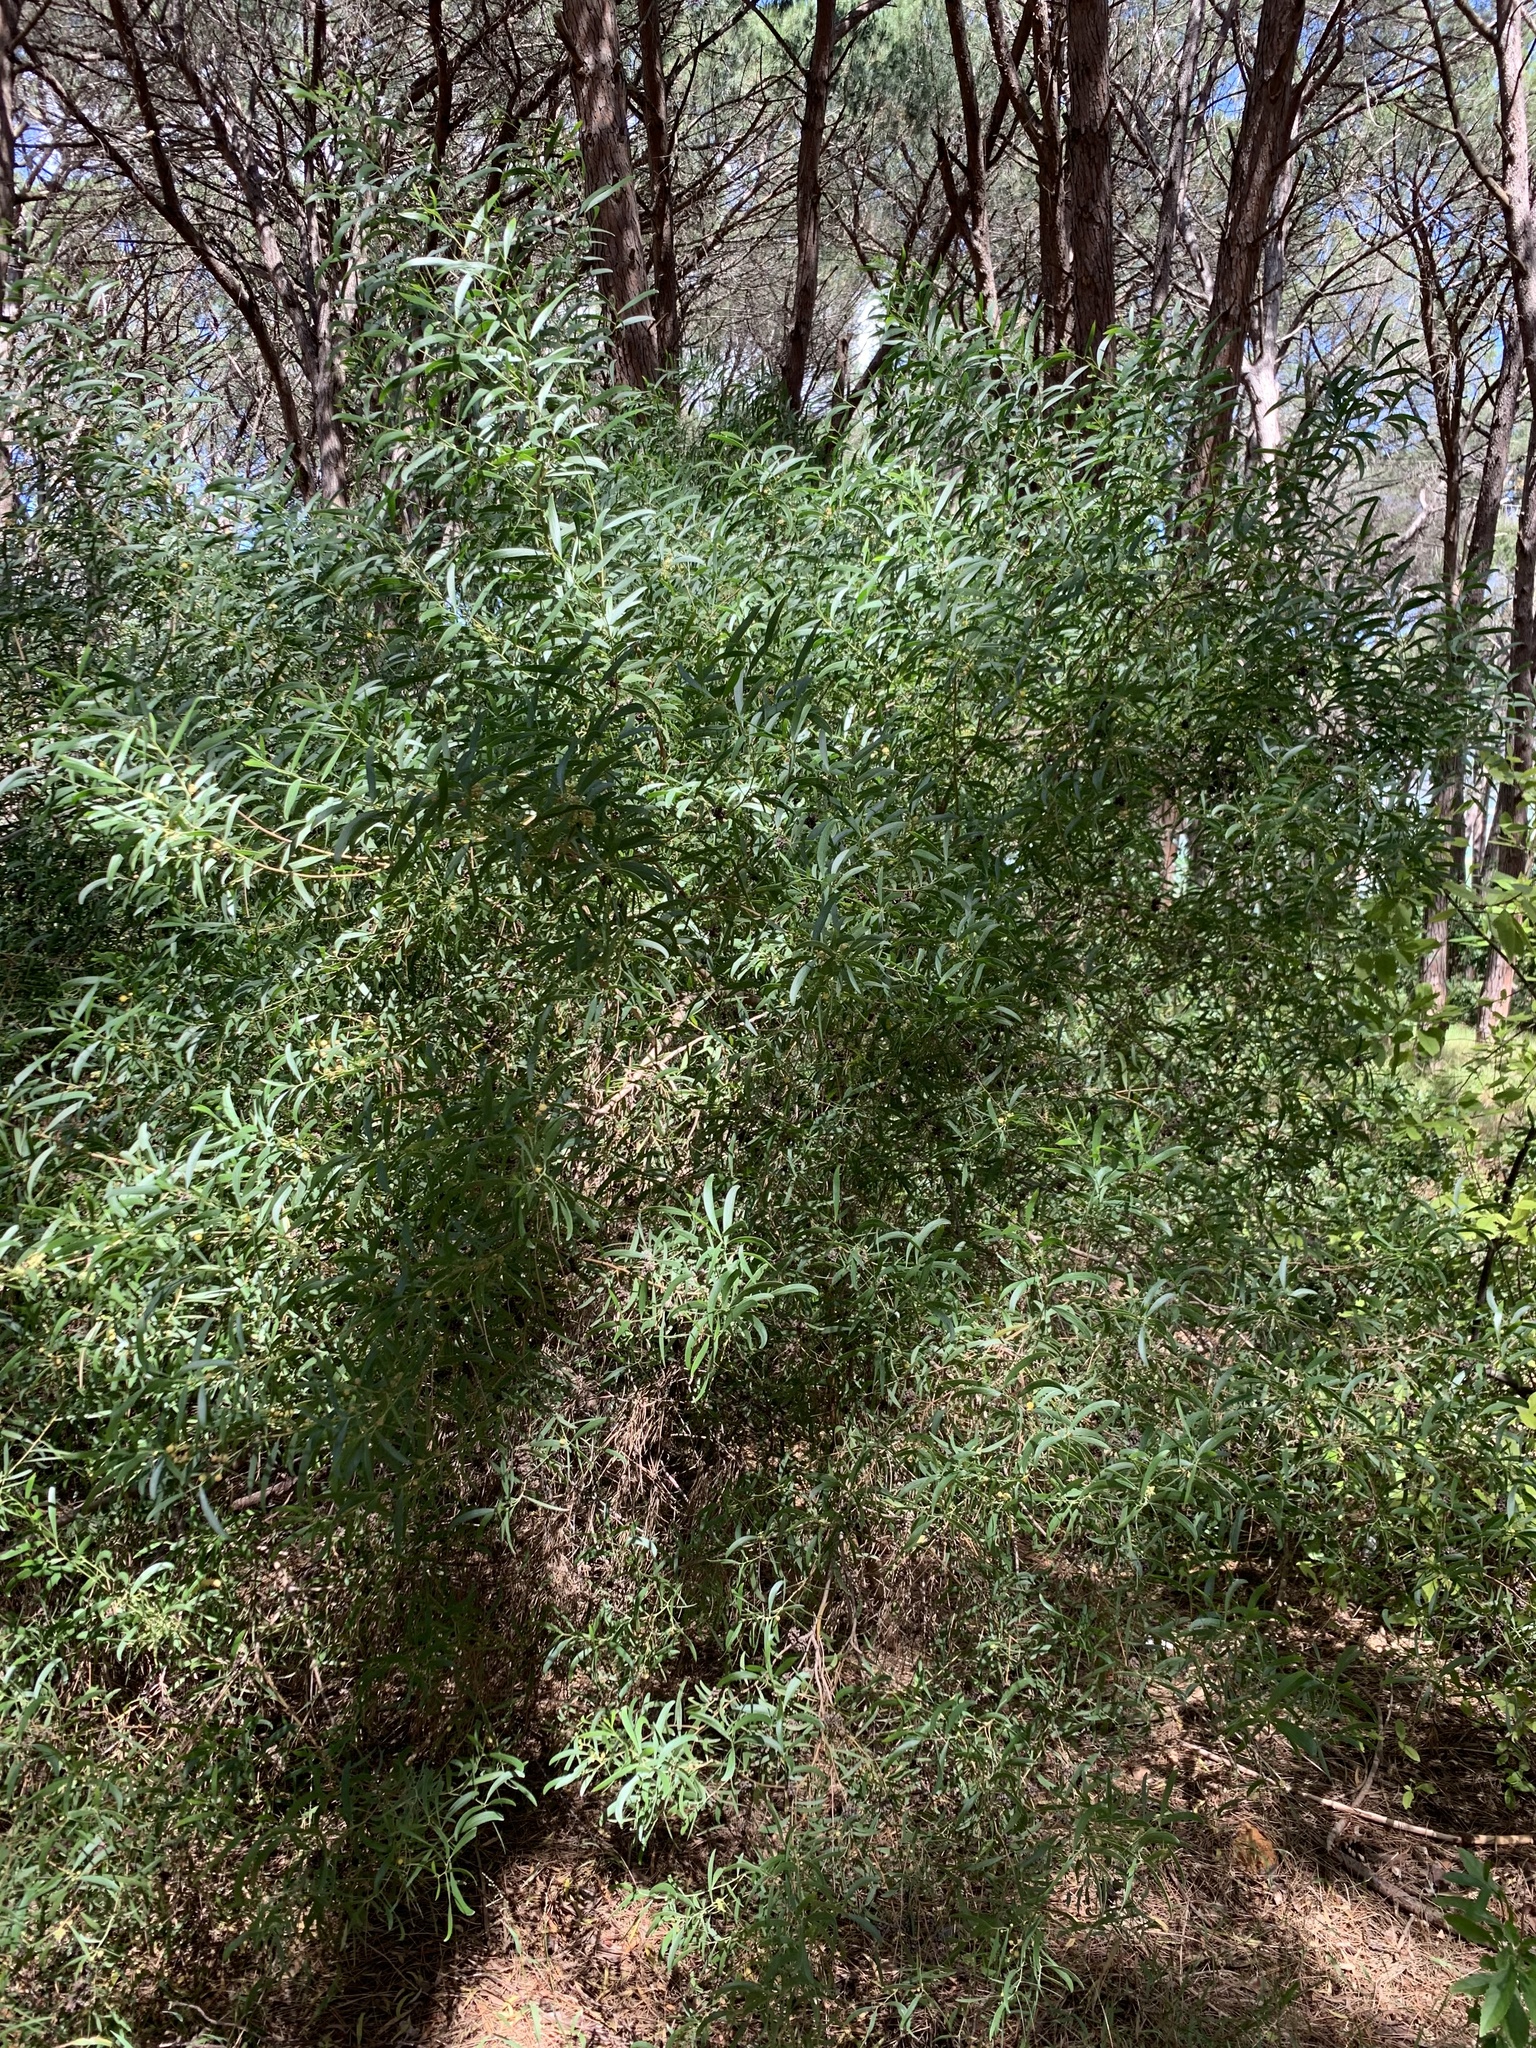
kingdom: Plantae
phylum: Tracheophyta
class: Magnoliopsida
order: Fabales
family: Fabaceae
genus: Acacia
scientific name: Acacia cyclops
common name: Coastal wattle
